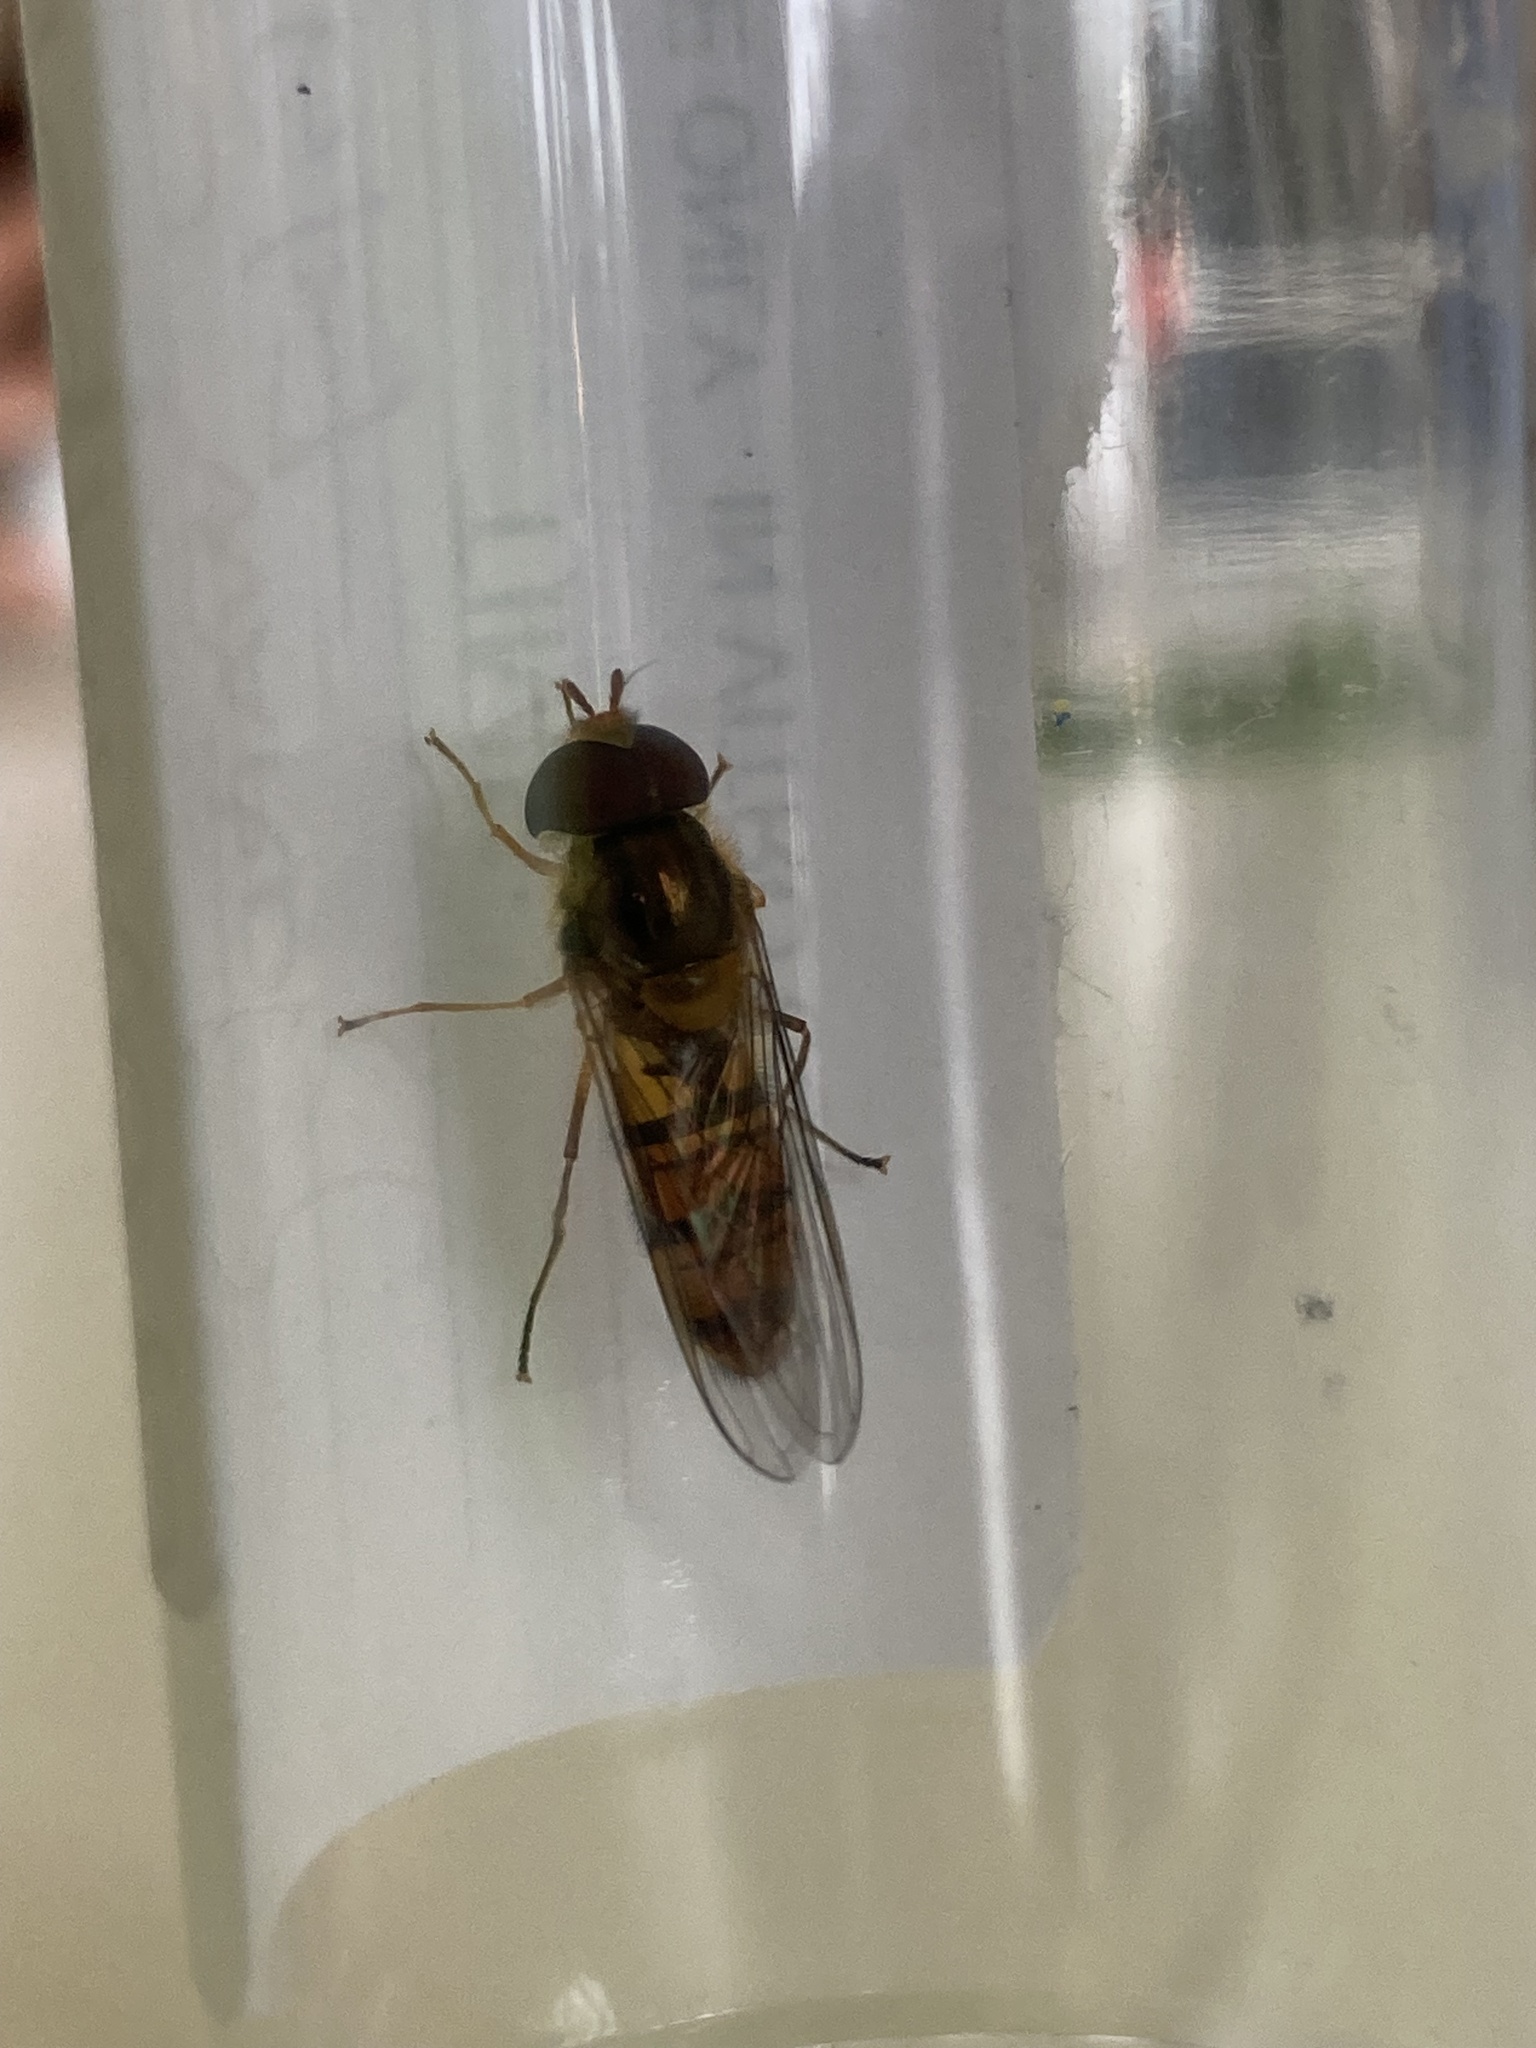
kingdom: Animalia
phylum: Arthropoda
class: Insecta
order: Diptera
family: Syrphidae
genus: Episyrphus
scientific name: Episyrphus balteatus
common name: Marmalade hoverfly
